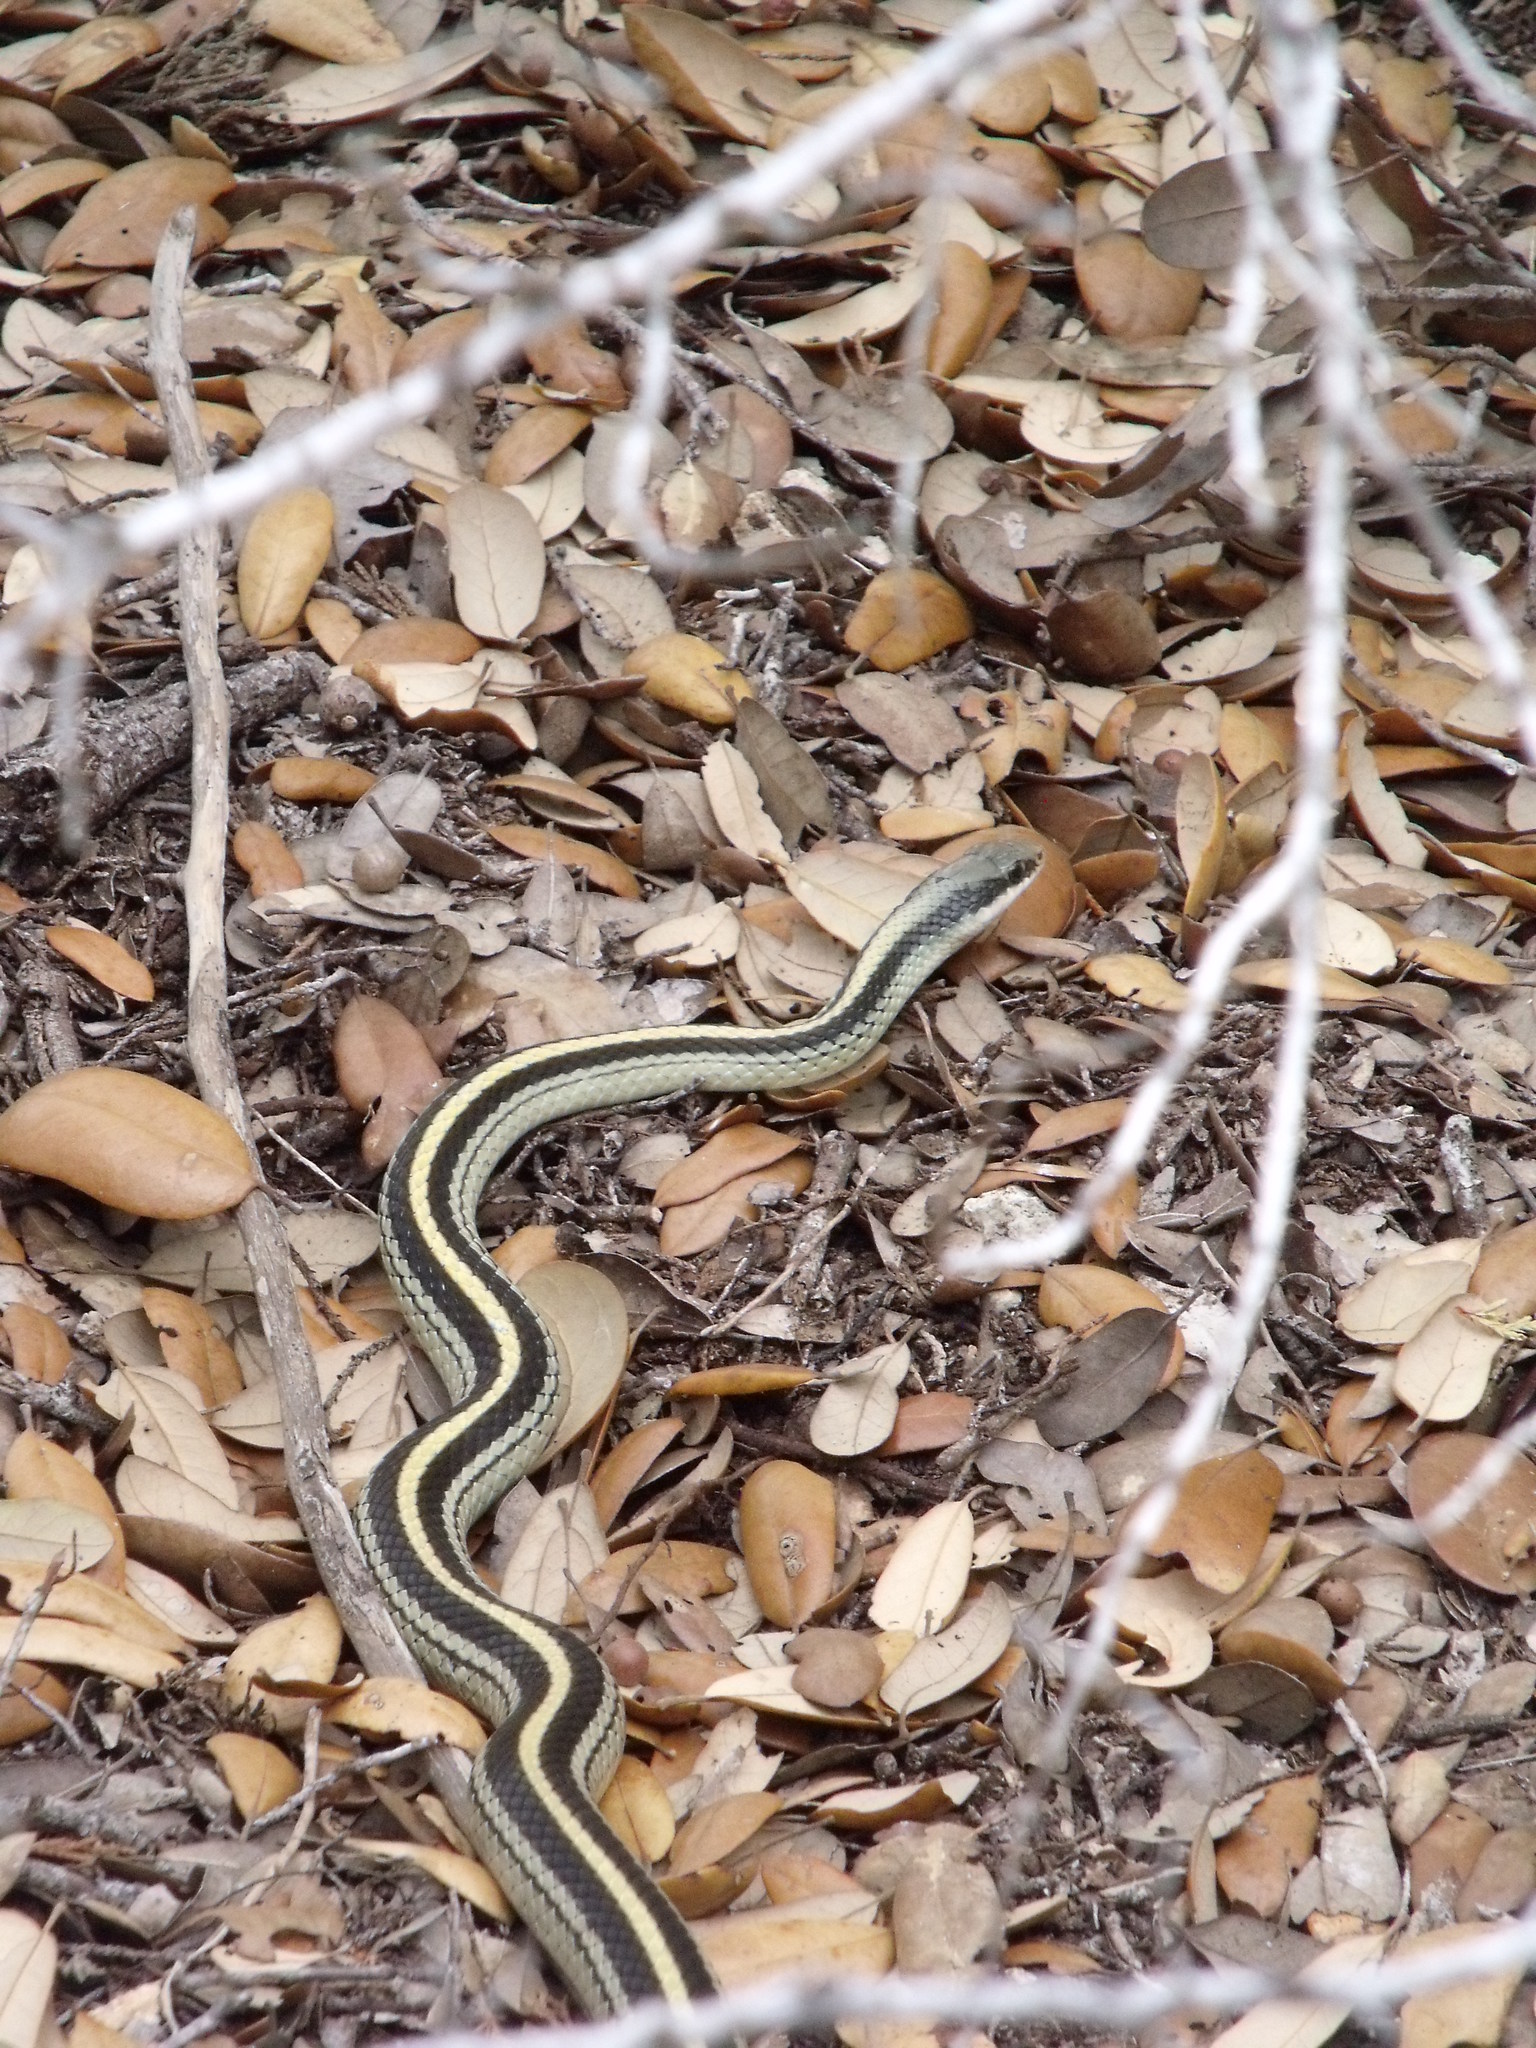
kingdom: Animalia
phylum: Chordata
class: Squamata
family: Colubridae
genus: Salvadora
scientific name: Salvadora lineata
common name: Texas patchnose snake
